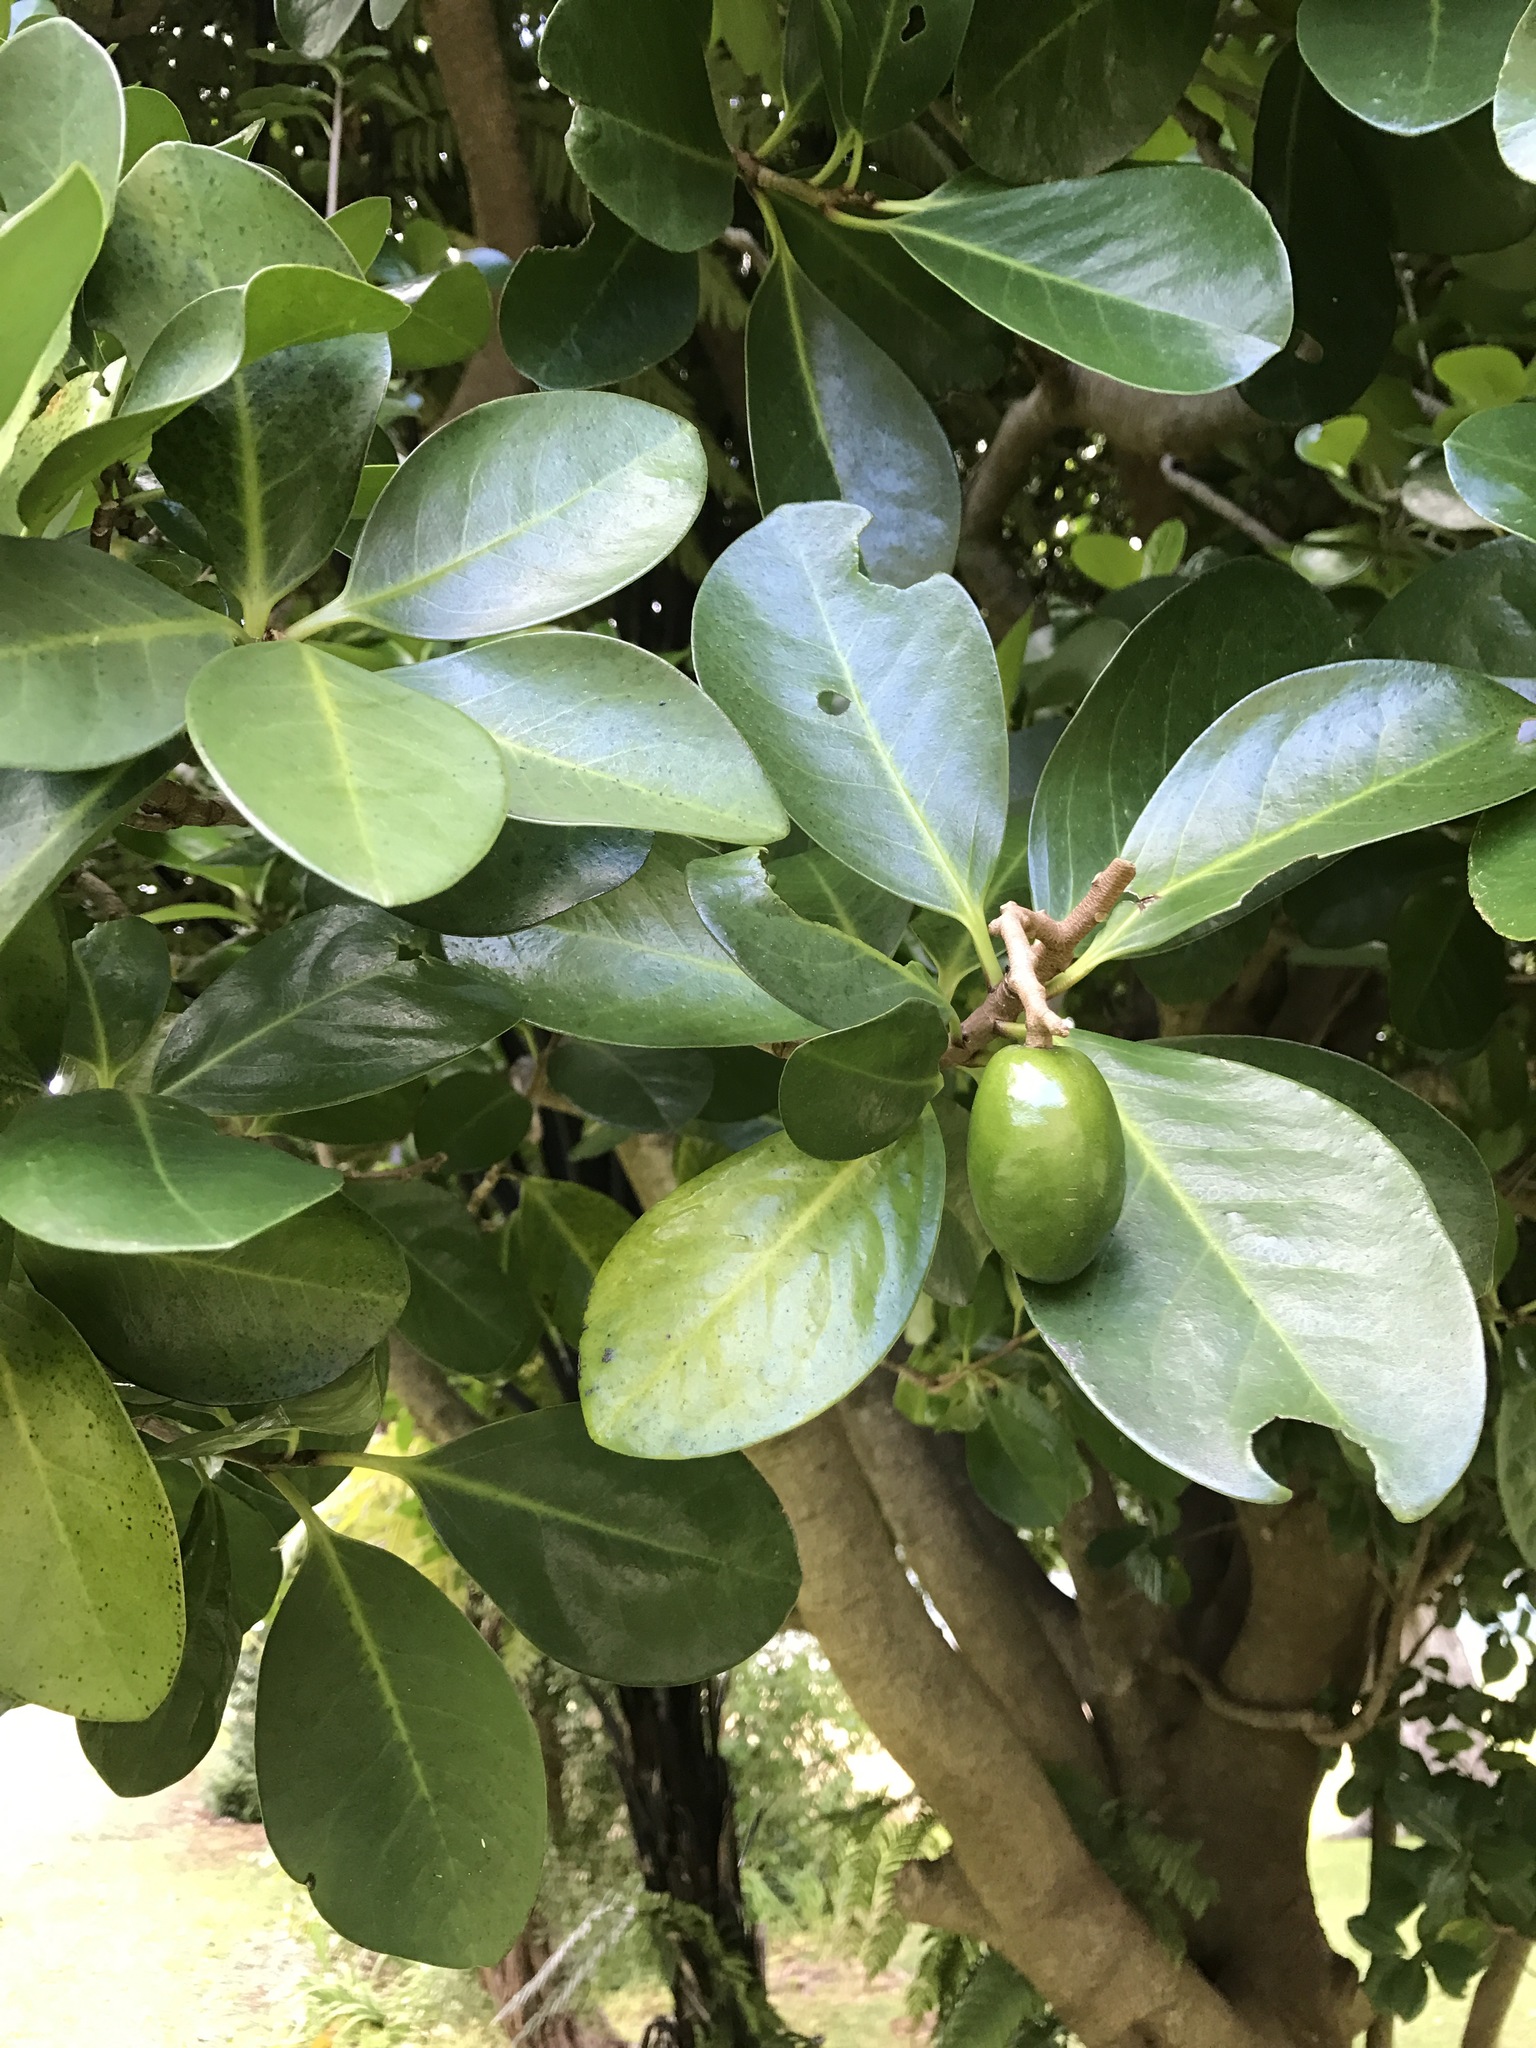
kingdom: Plantae
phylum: Tracheophyta
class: Magnoliopsida
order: Cucurbitales
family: Corynocarpaceae
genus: Corynocarpus
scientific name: Corynocarpus laevigatus
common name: New zealand laurel
